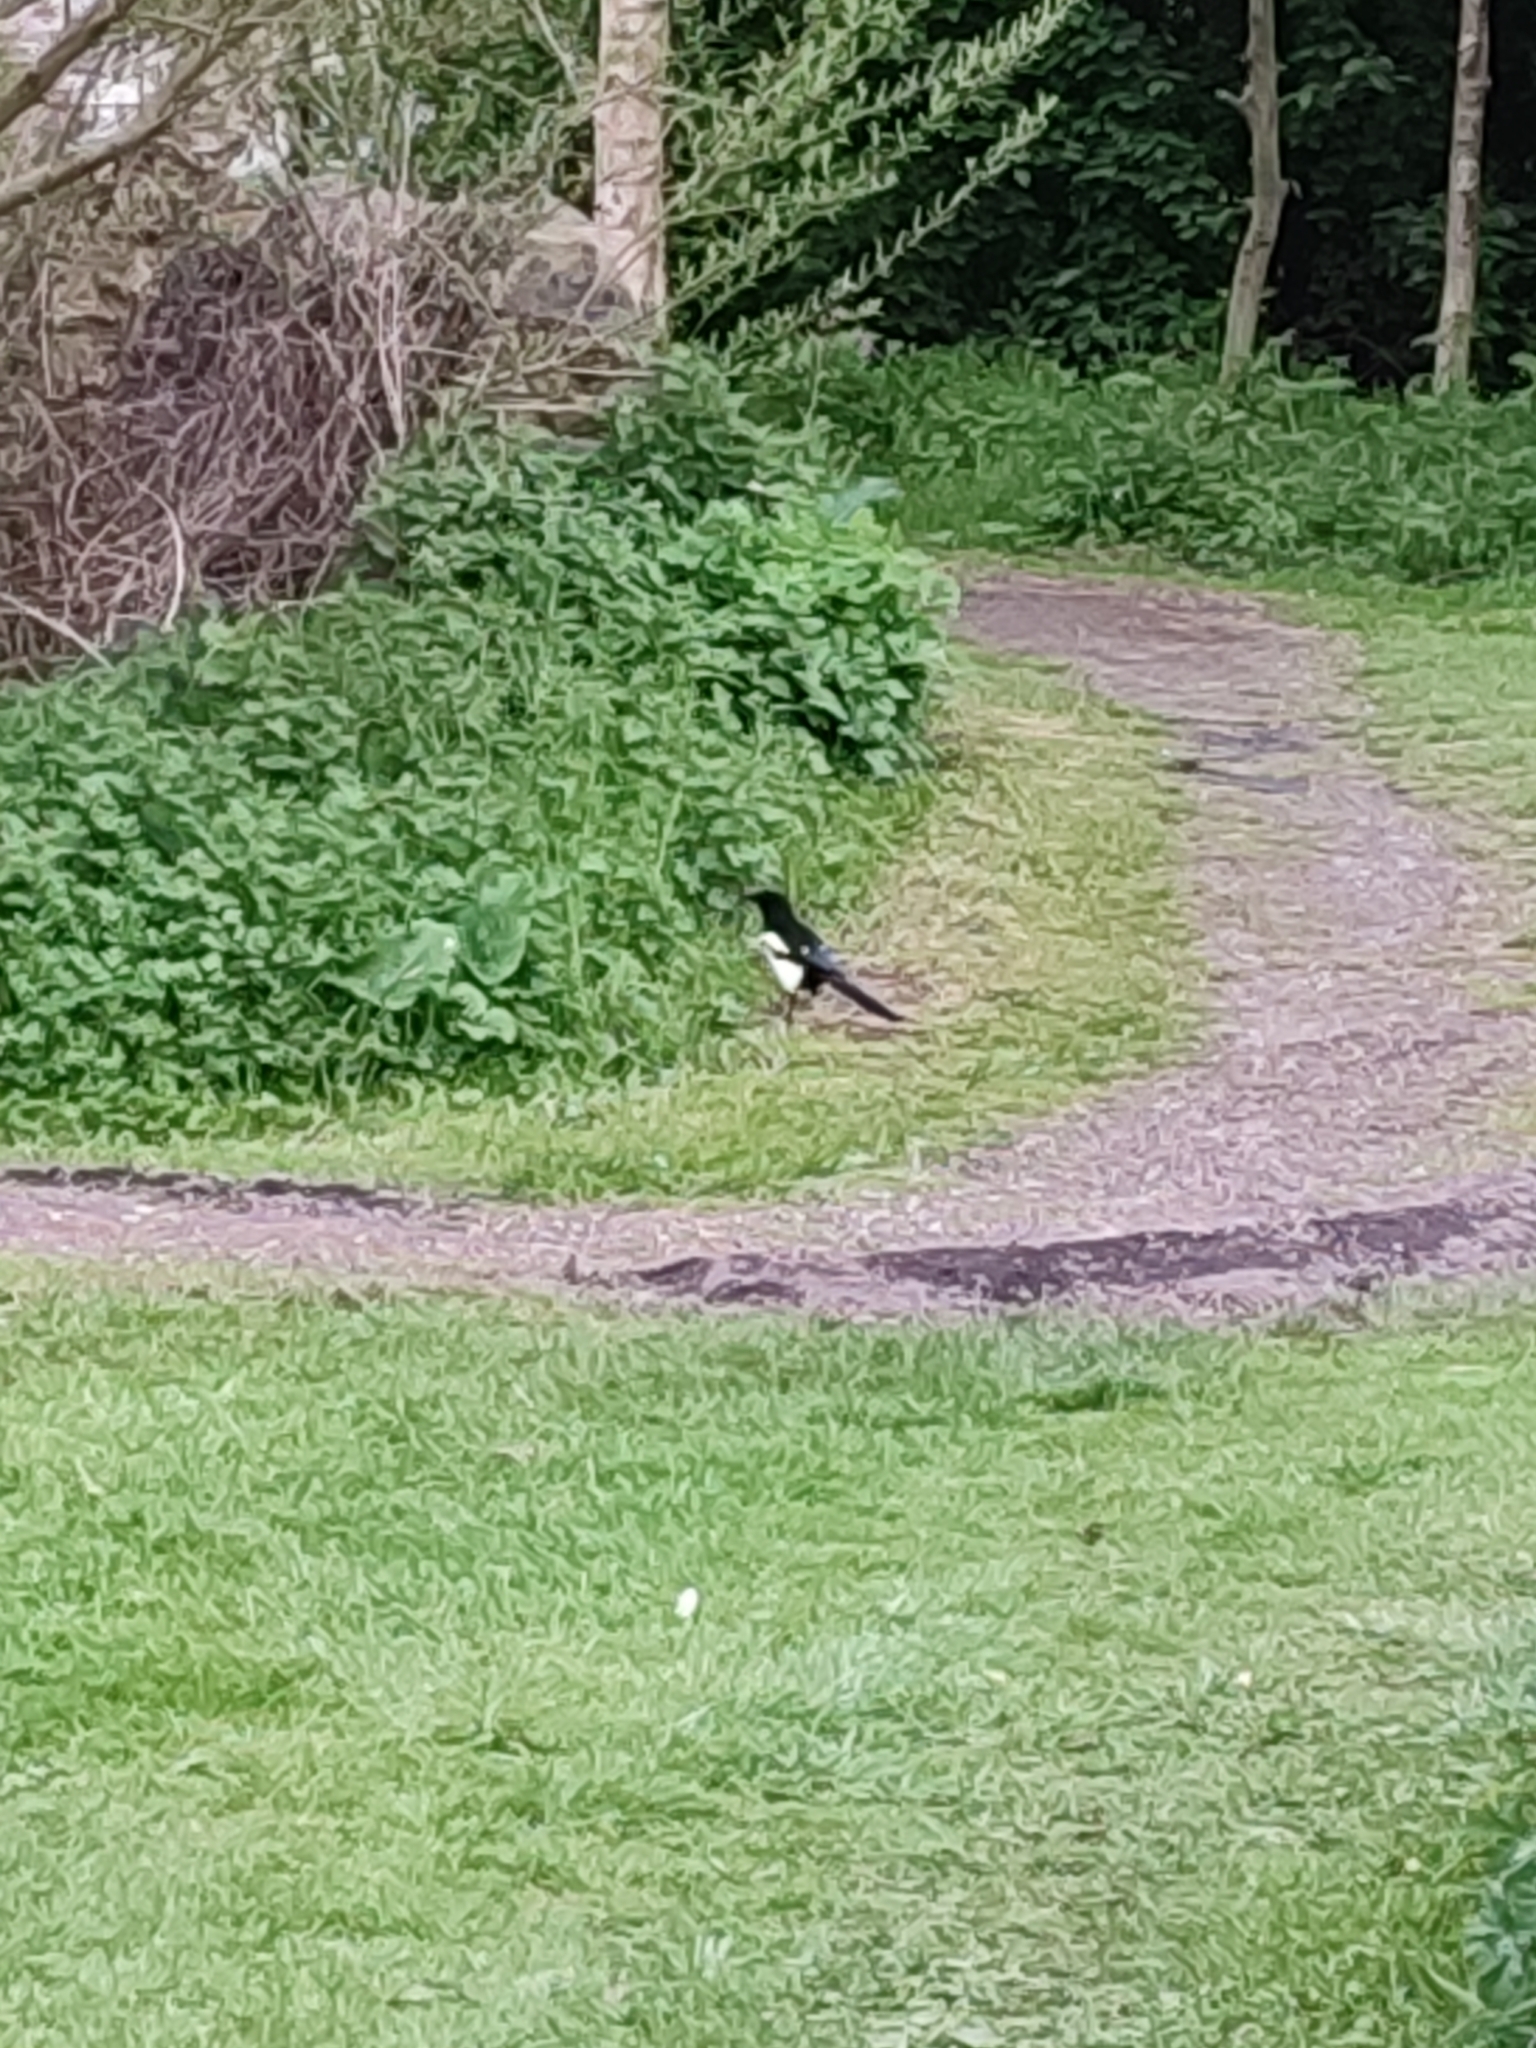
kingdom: Animalia
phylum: Chordata
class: Aves
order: Passeriformes
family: Corvidae
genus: Pica
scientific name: Pica pica
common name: Eurasian magpie
